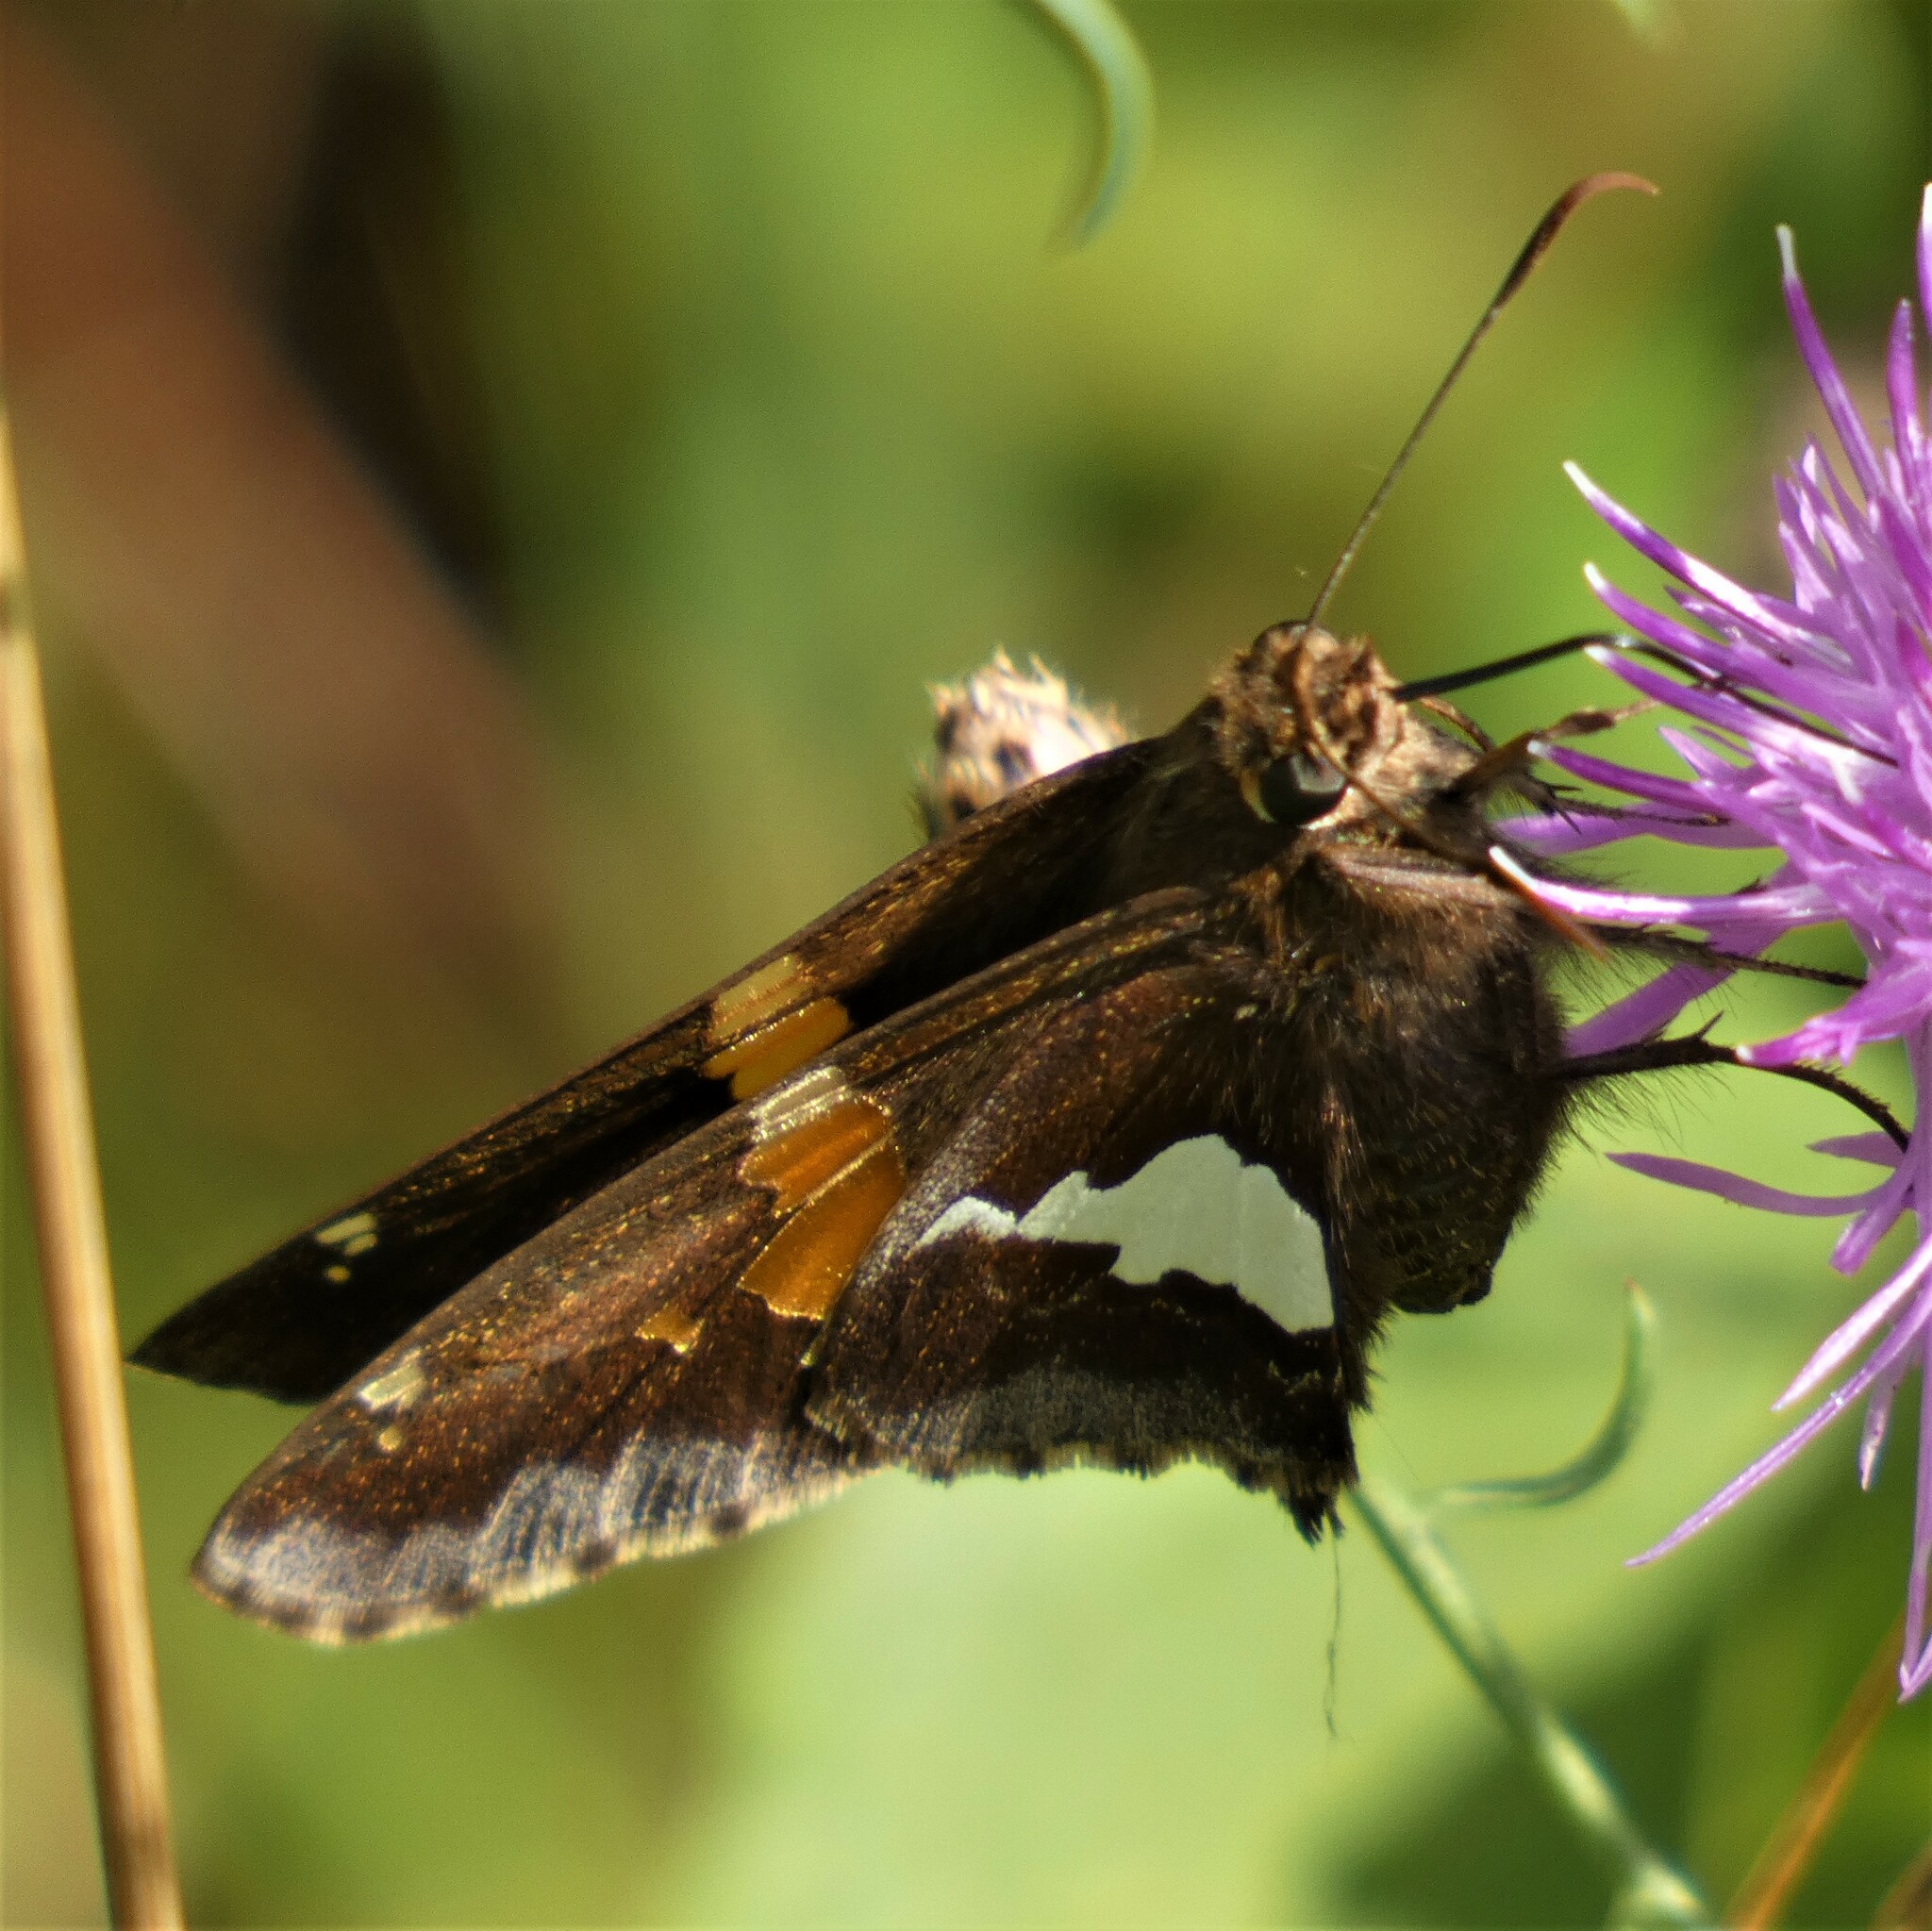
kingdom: Animalia
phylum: Arthropoda
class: Insecta
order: Lepidoptera
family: Hesperiidae
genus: Epargyreus
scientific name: Epargyreus clarus
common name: Silver-spotted skipper
